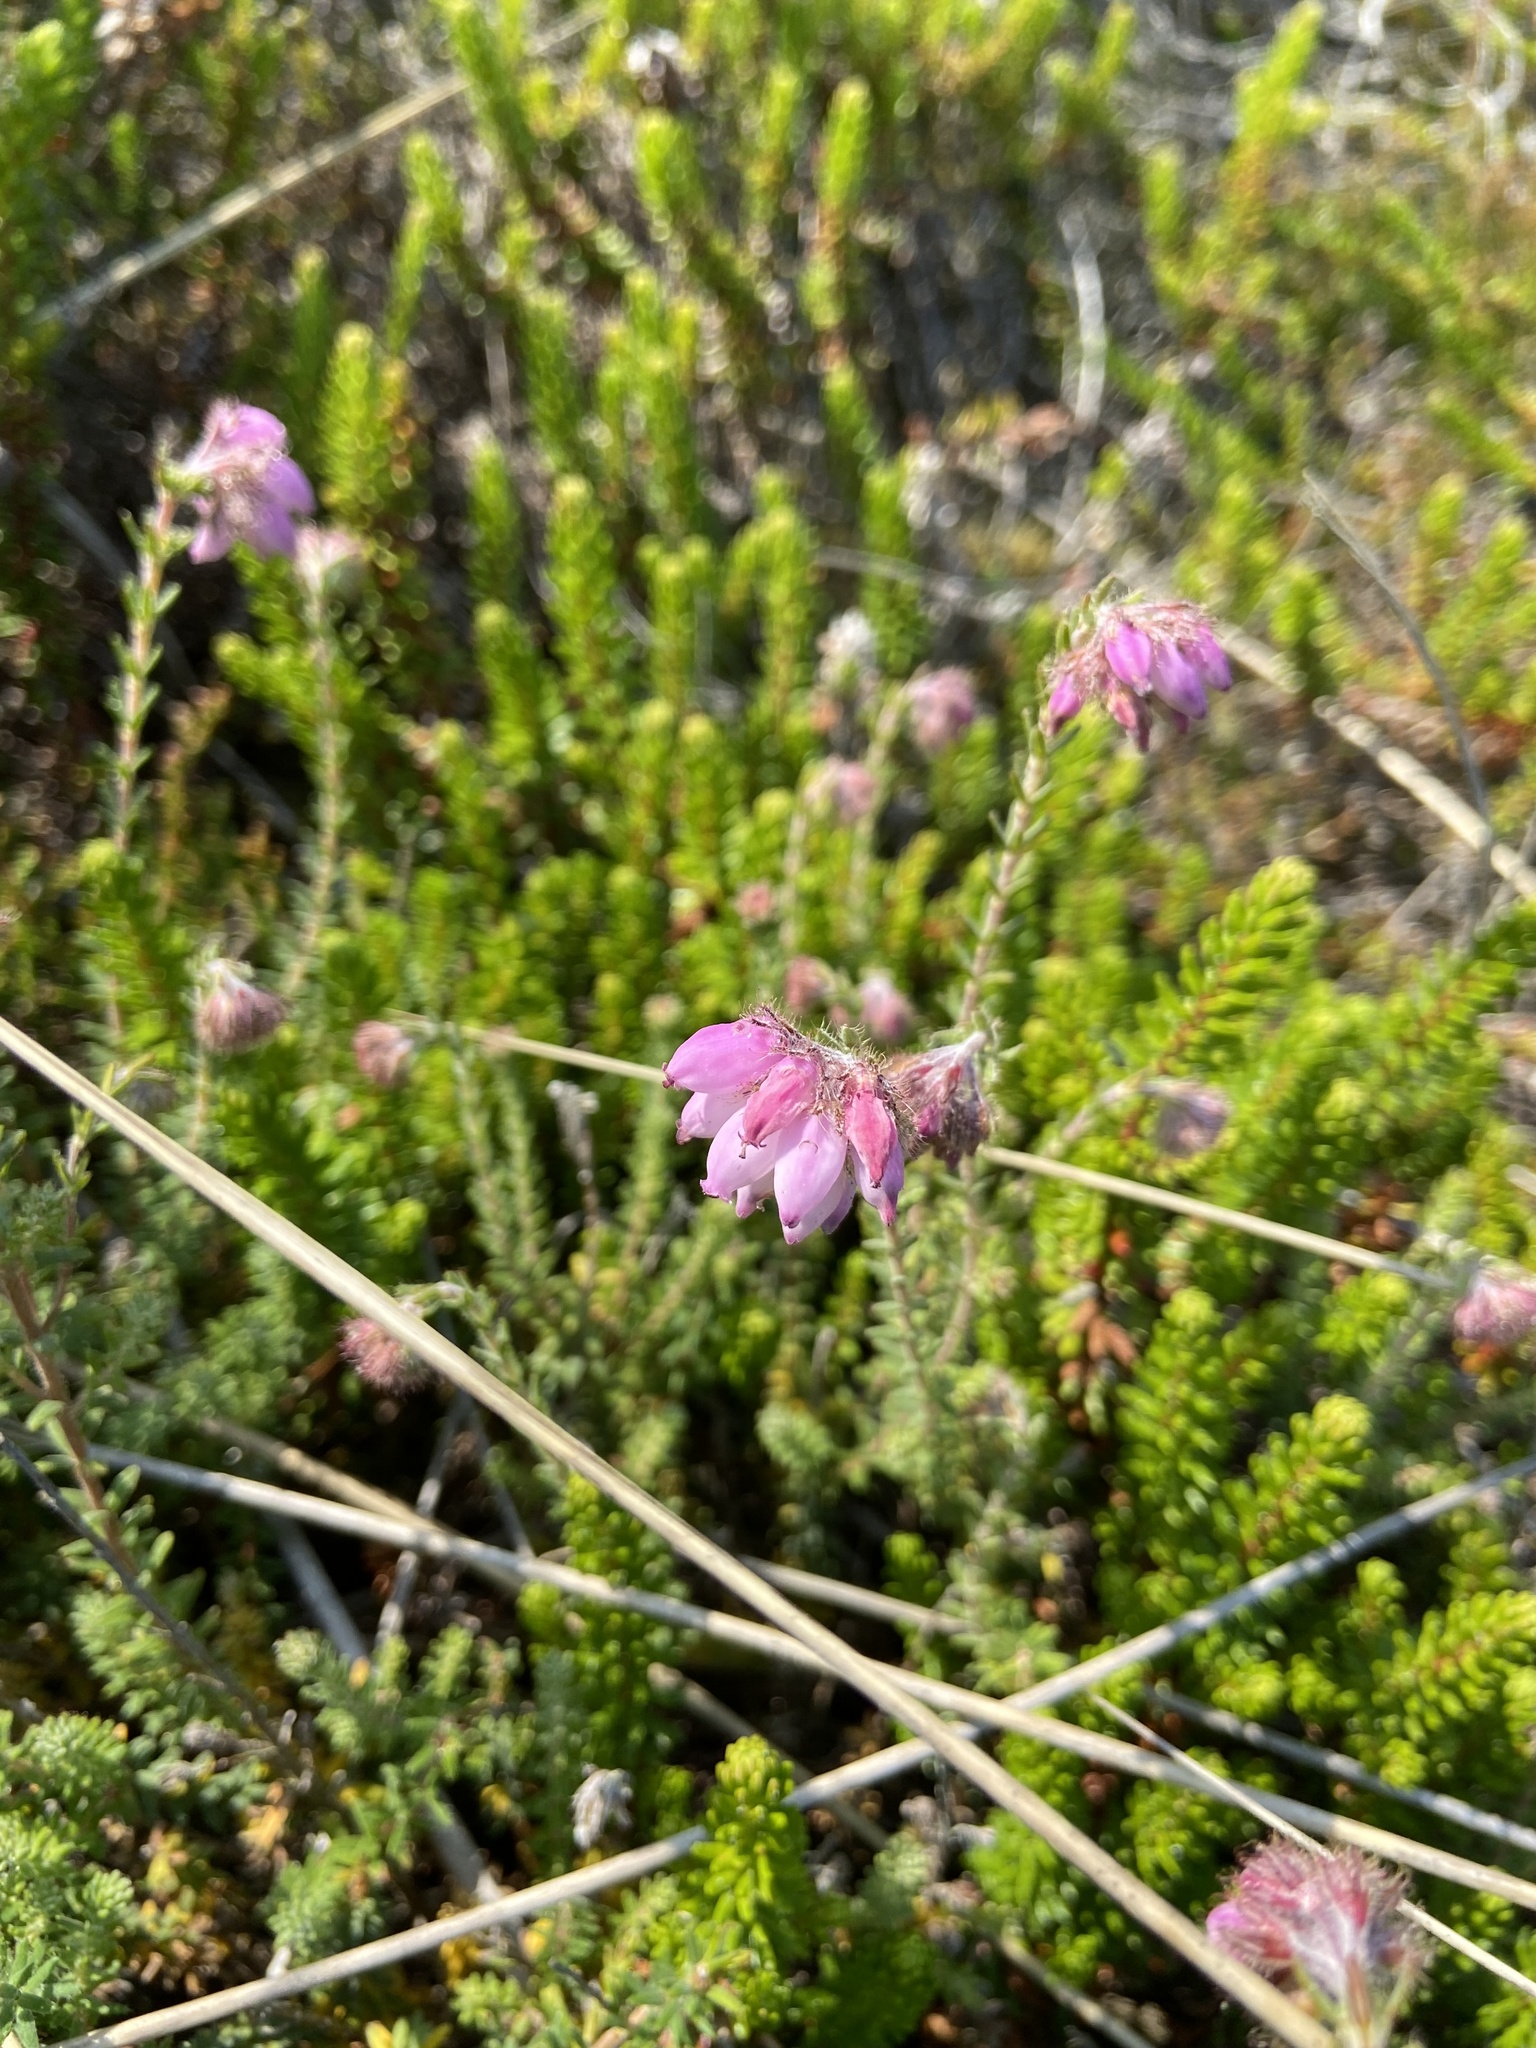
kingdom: Plantae
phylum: Tracheophyta
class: Magnoliopsida
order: Ericales
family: Ericaceae
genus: Erica
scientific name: Erica tetralix
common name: Cross-leaved heath
